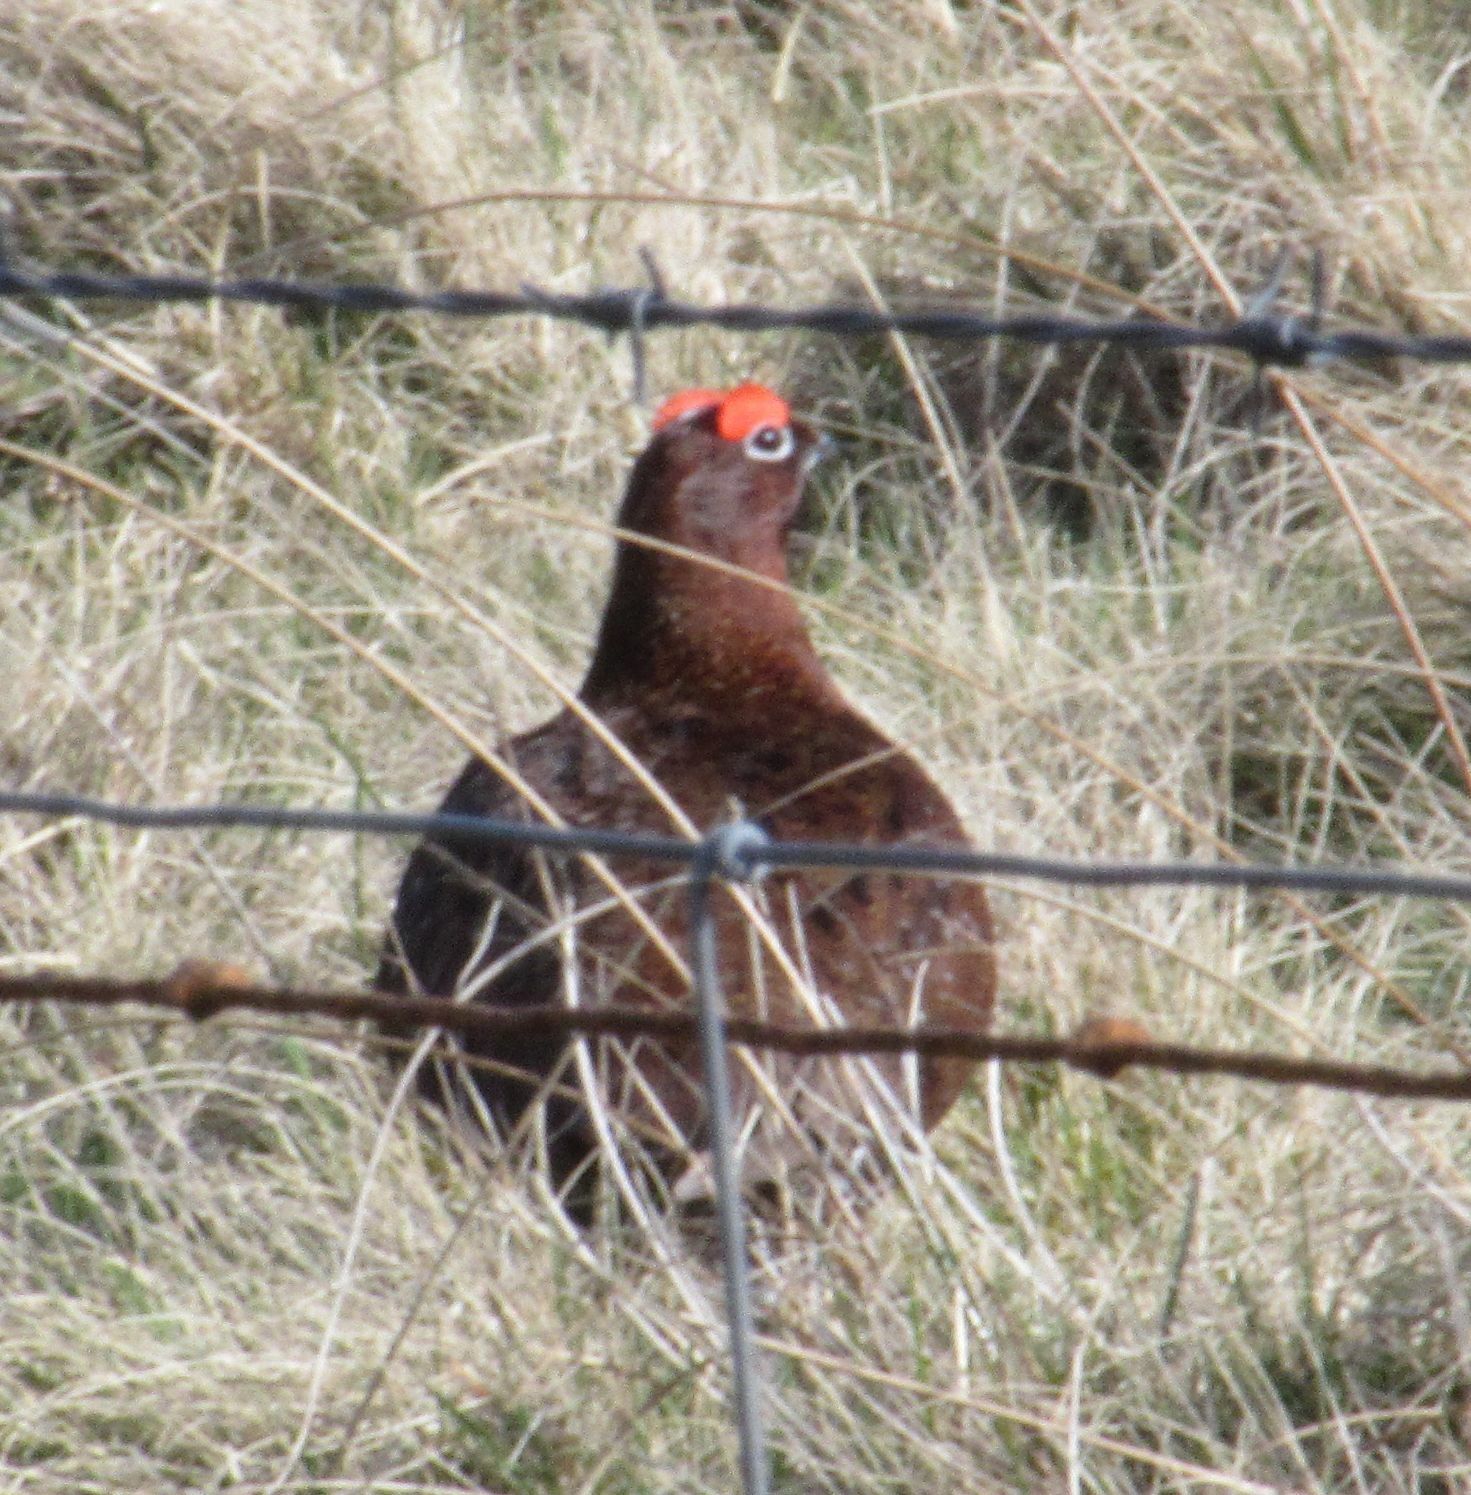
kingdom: Animalia
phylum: Chordata
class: Aves
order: Galliformes
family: Phasianidae
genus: Lagopus
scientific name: Lagopus lagopus
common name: Willow ptarmigan
